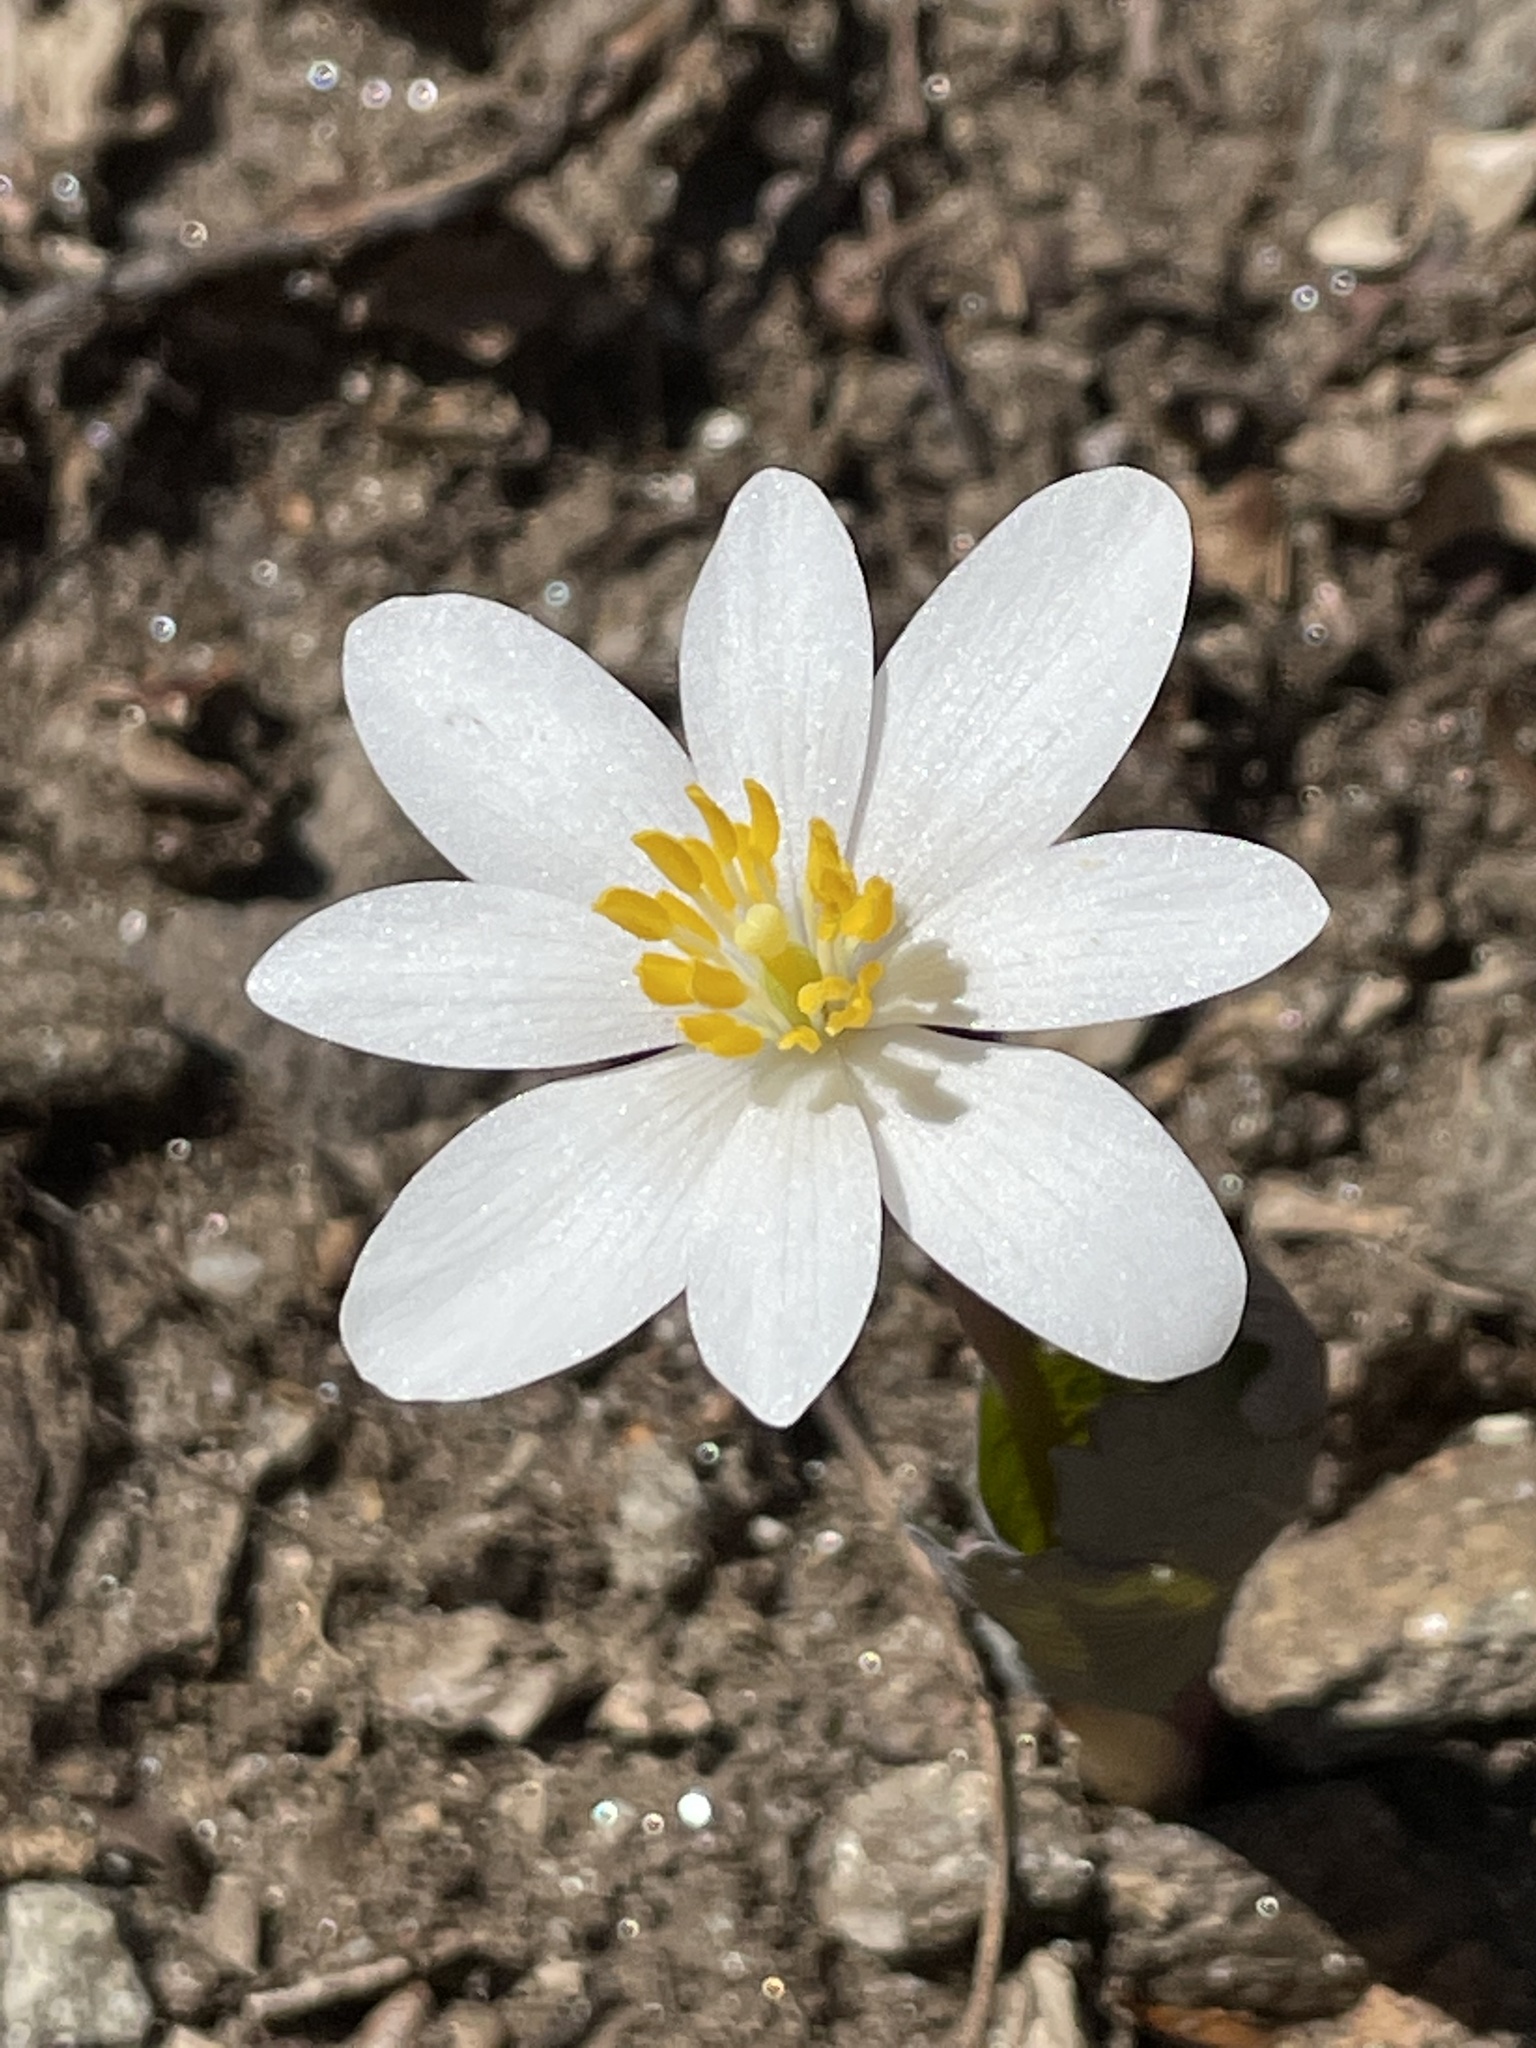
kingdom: Plantae
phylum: Tracheophyta
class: Magnoliopsida
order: Ranunculales
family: Papaveraceae
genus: Sanguinaria
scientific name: Sanguinaria canadensis
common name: Bloodroot
